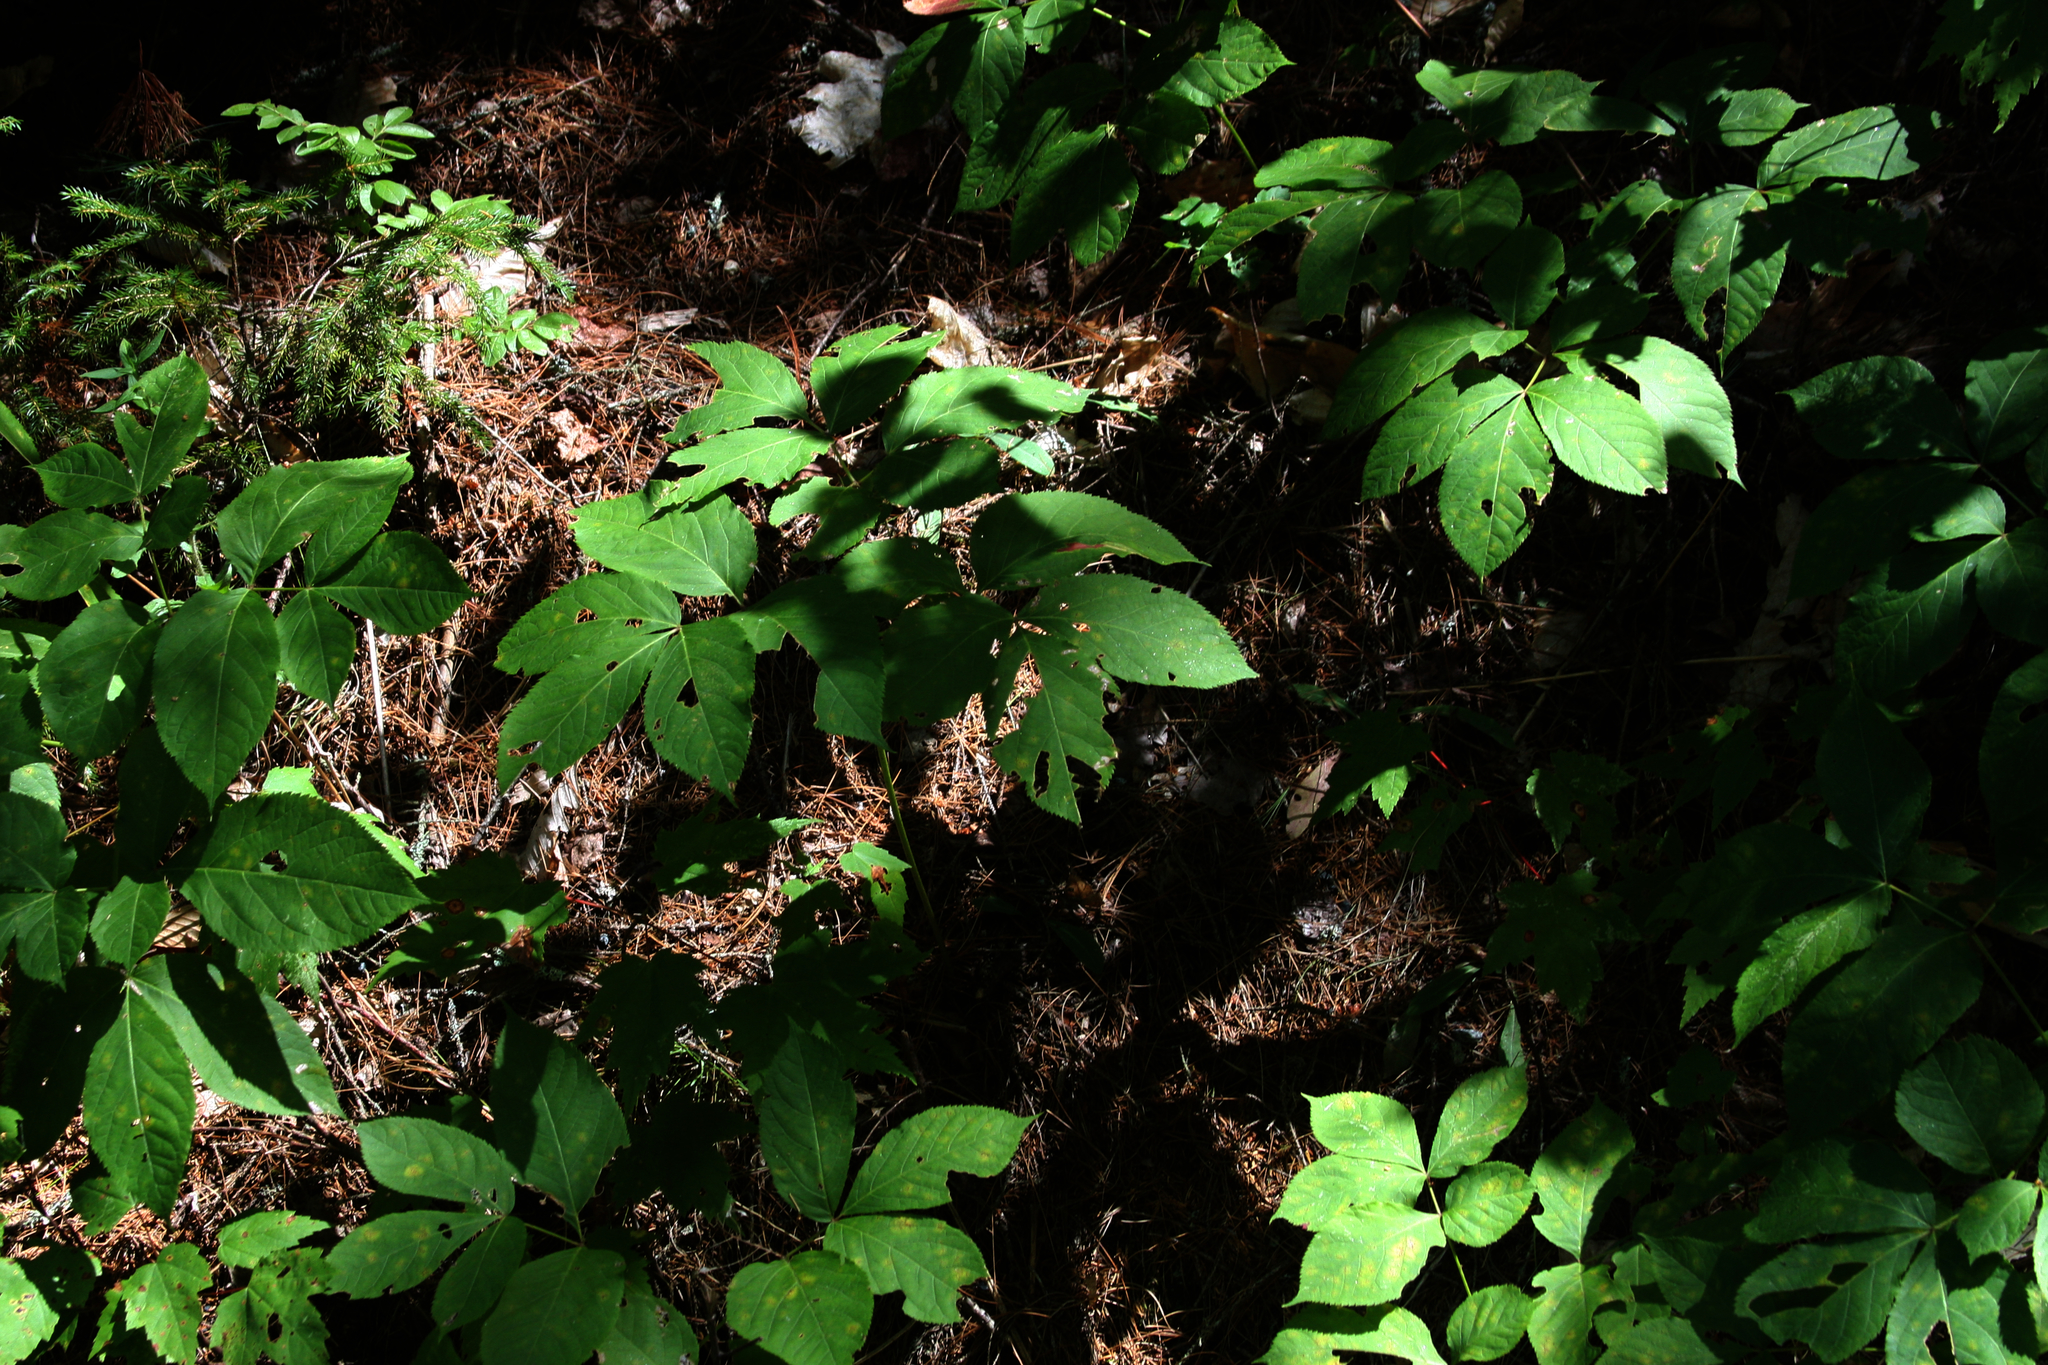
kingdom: Plantae
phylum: Tracheophyta
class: Magnoliopsida
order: Apiales
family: Araliaceae
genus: Aralia
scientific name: Aralia nudicaulis
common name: Wild sarsaparilla
